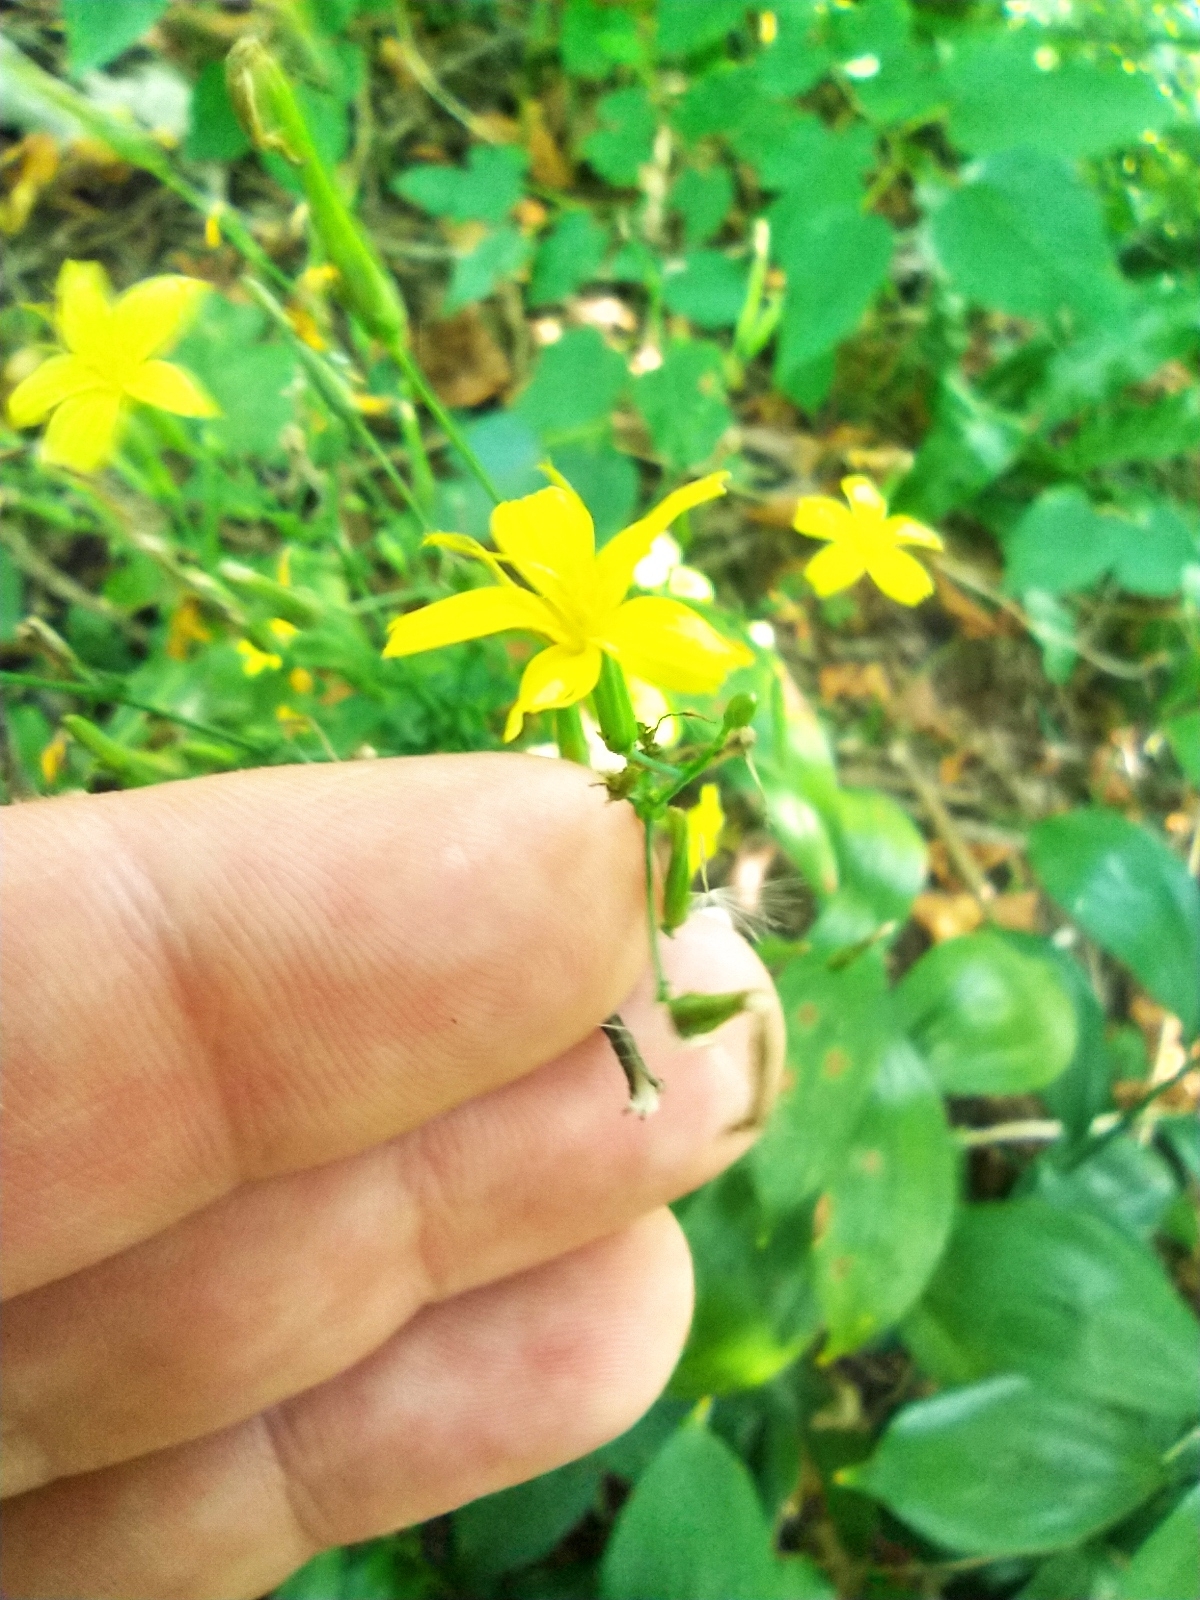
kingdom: Plantae
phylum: Tracheophyta
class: Magnoliopsida
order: Asterales
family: Asteraceae
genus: Mycelis
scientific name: Mycelis muralis
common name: Wall lettuce
